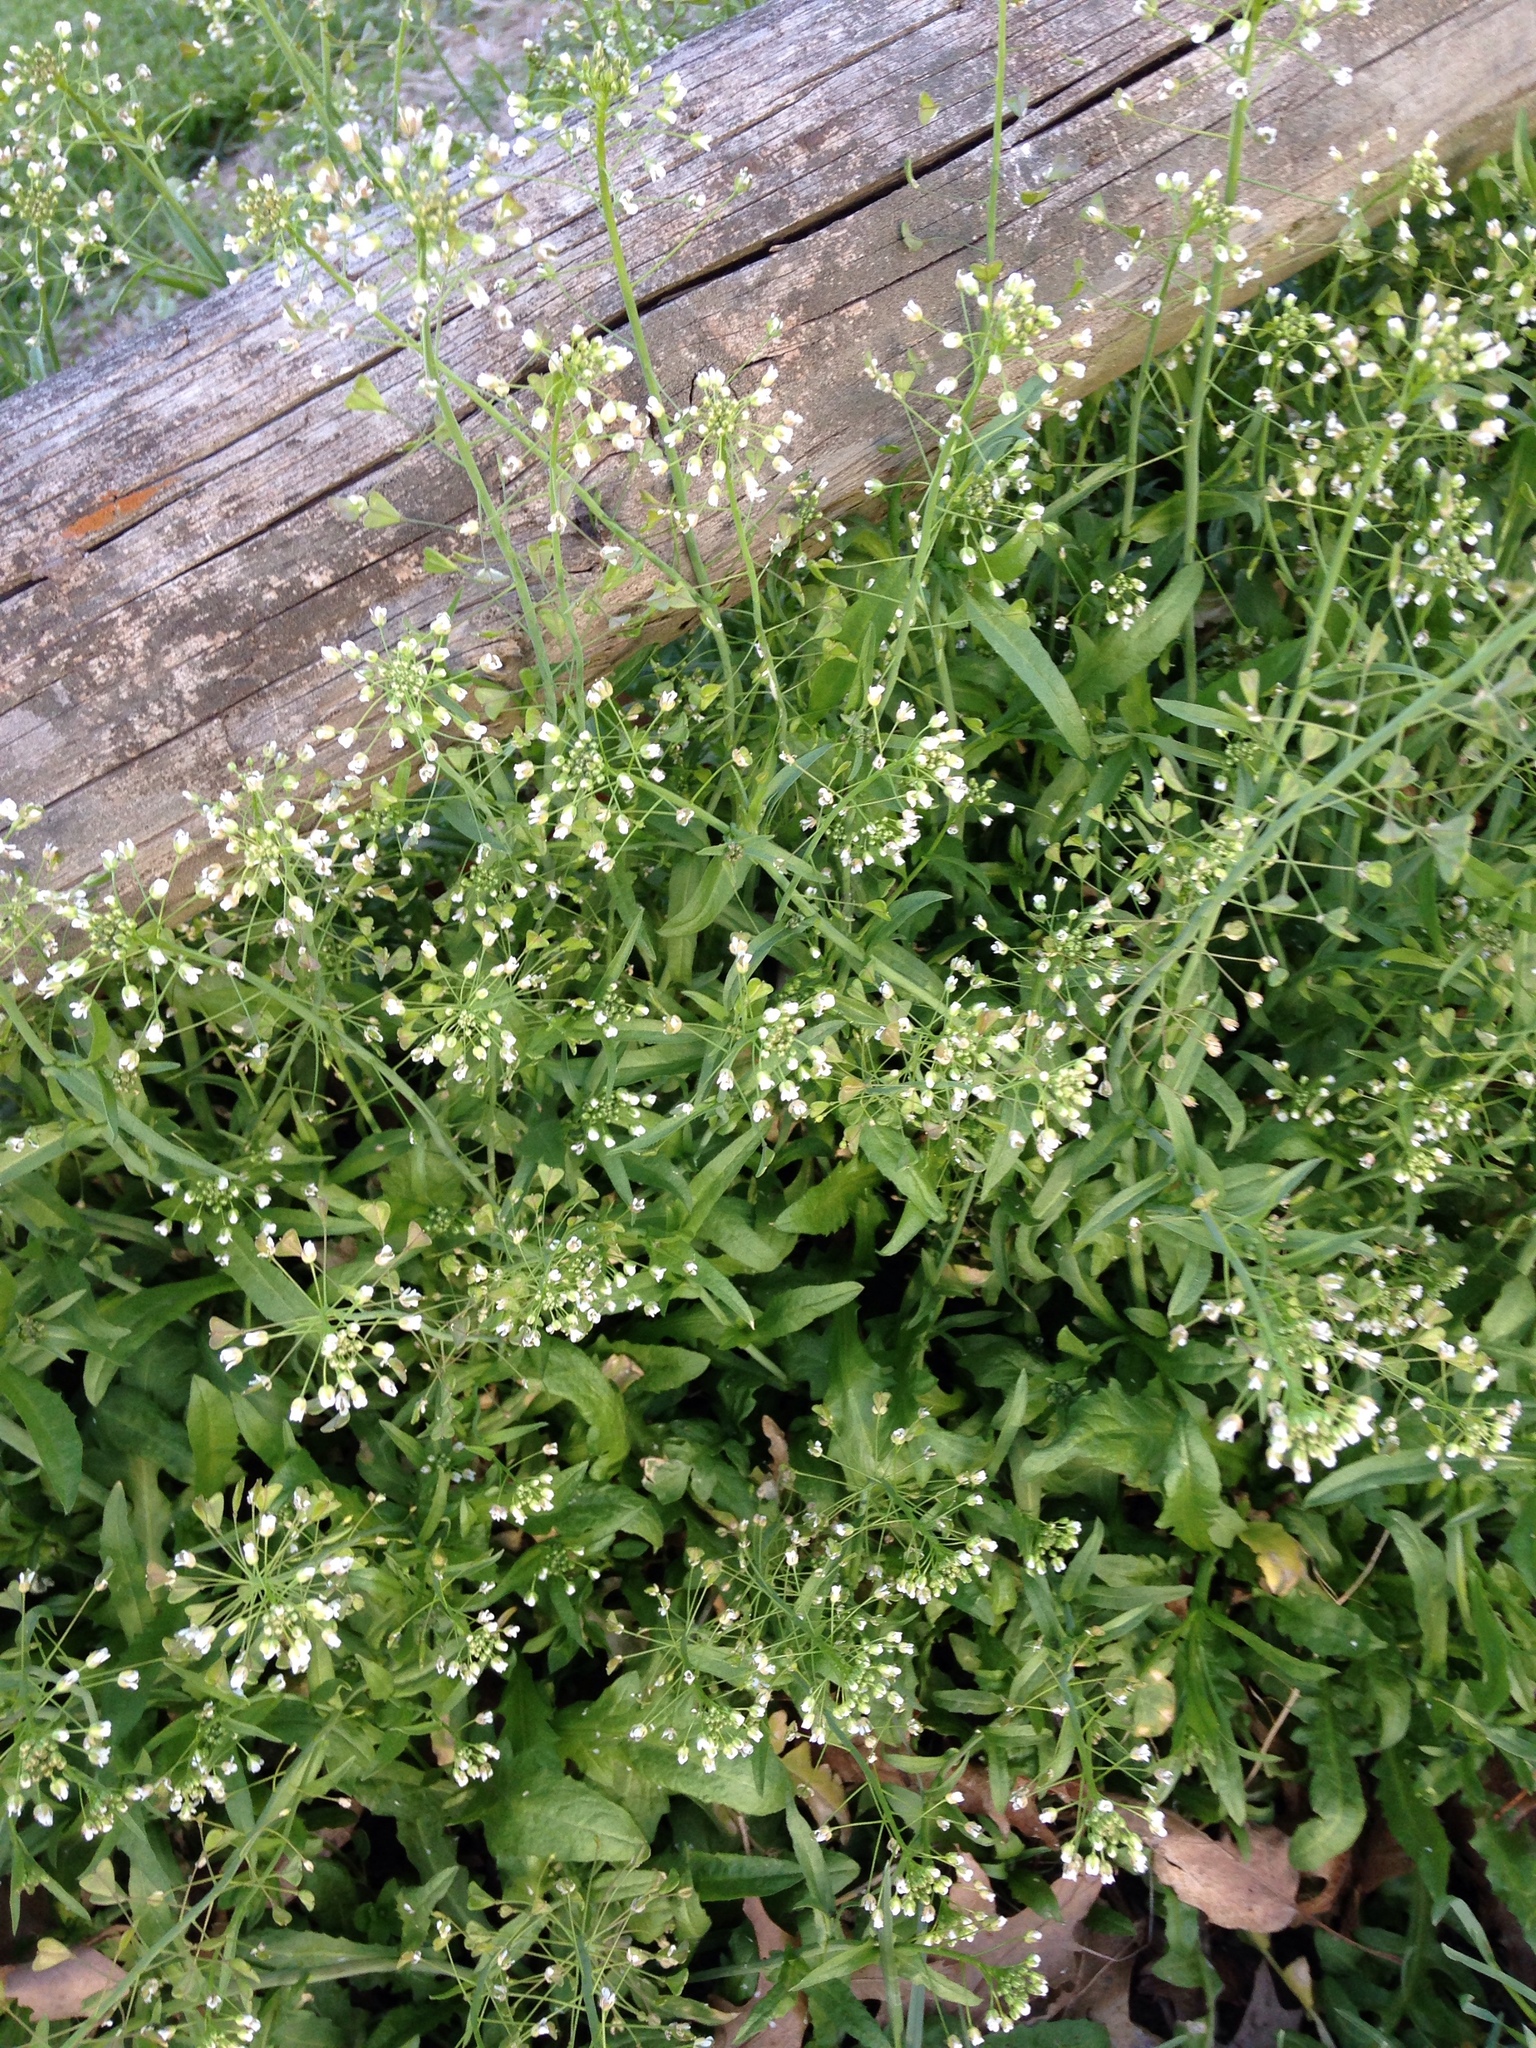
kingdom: Plantae
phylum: Tracheophyta
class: Magnoliopsida
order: Brassicales
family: Brassicaceae
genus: Capsella
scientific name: Capsella bursa-pastoris
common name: Shepherd's purse
